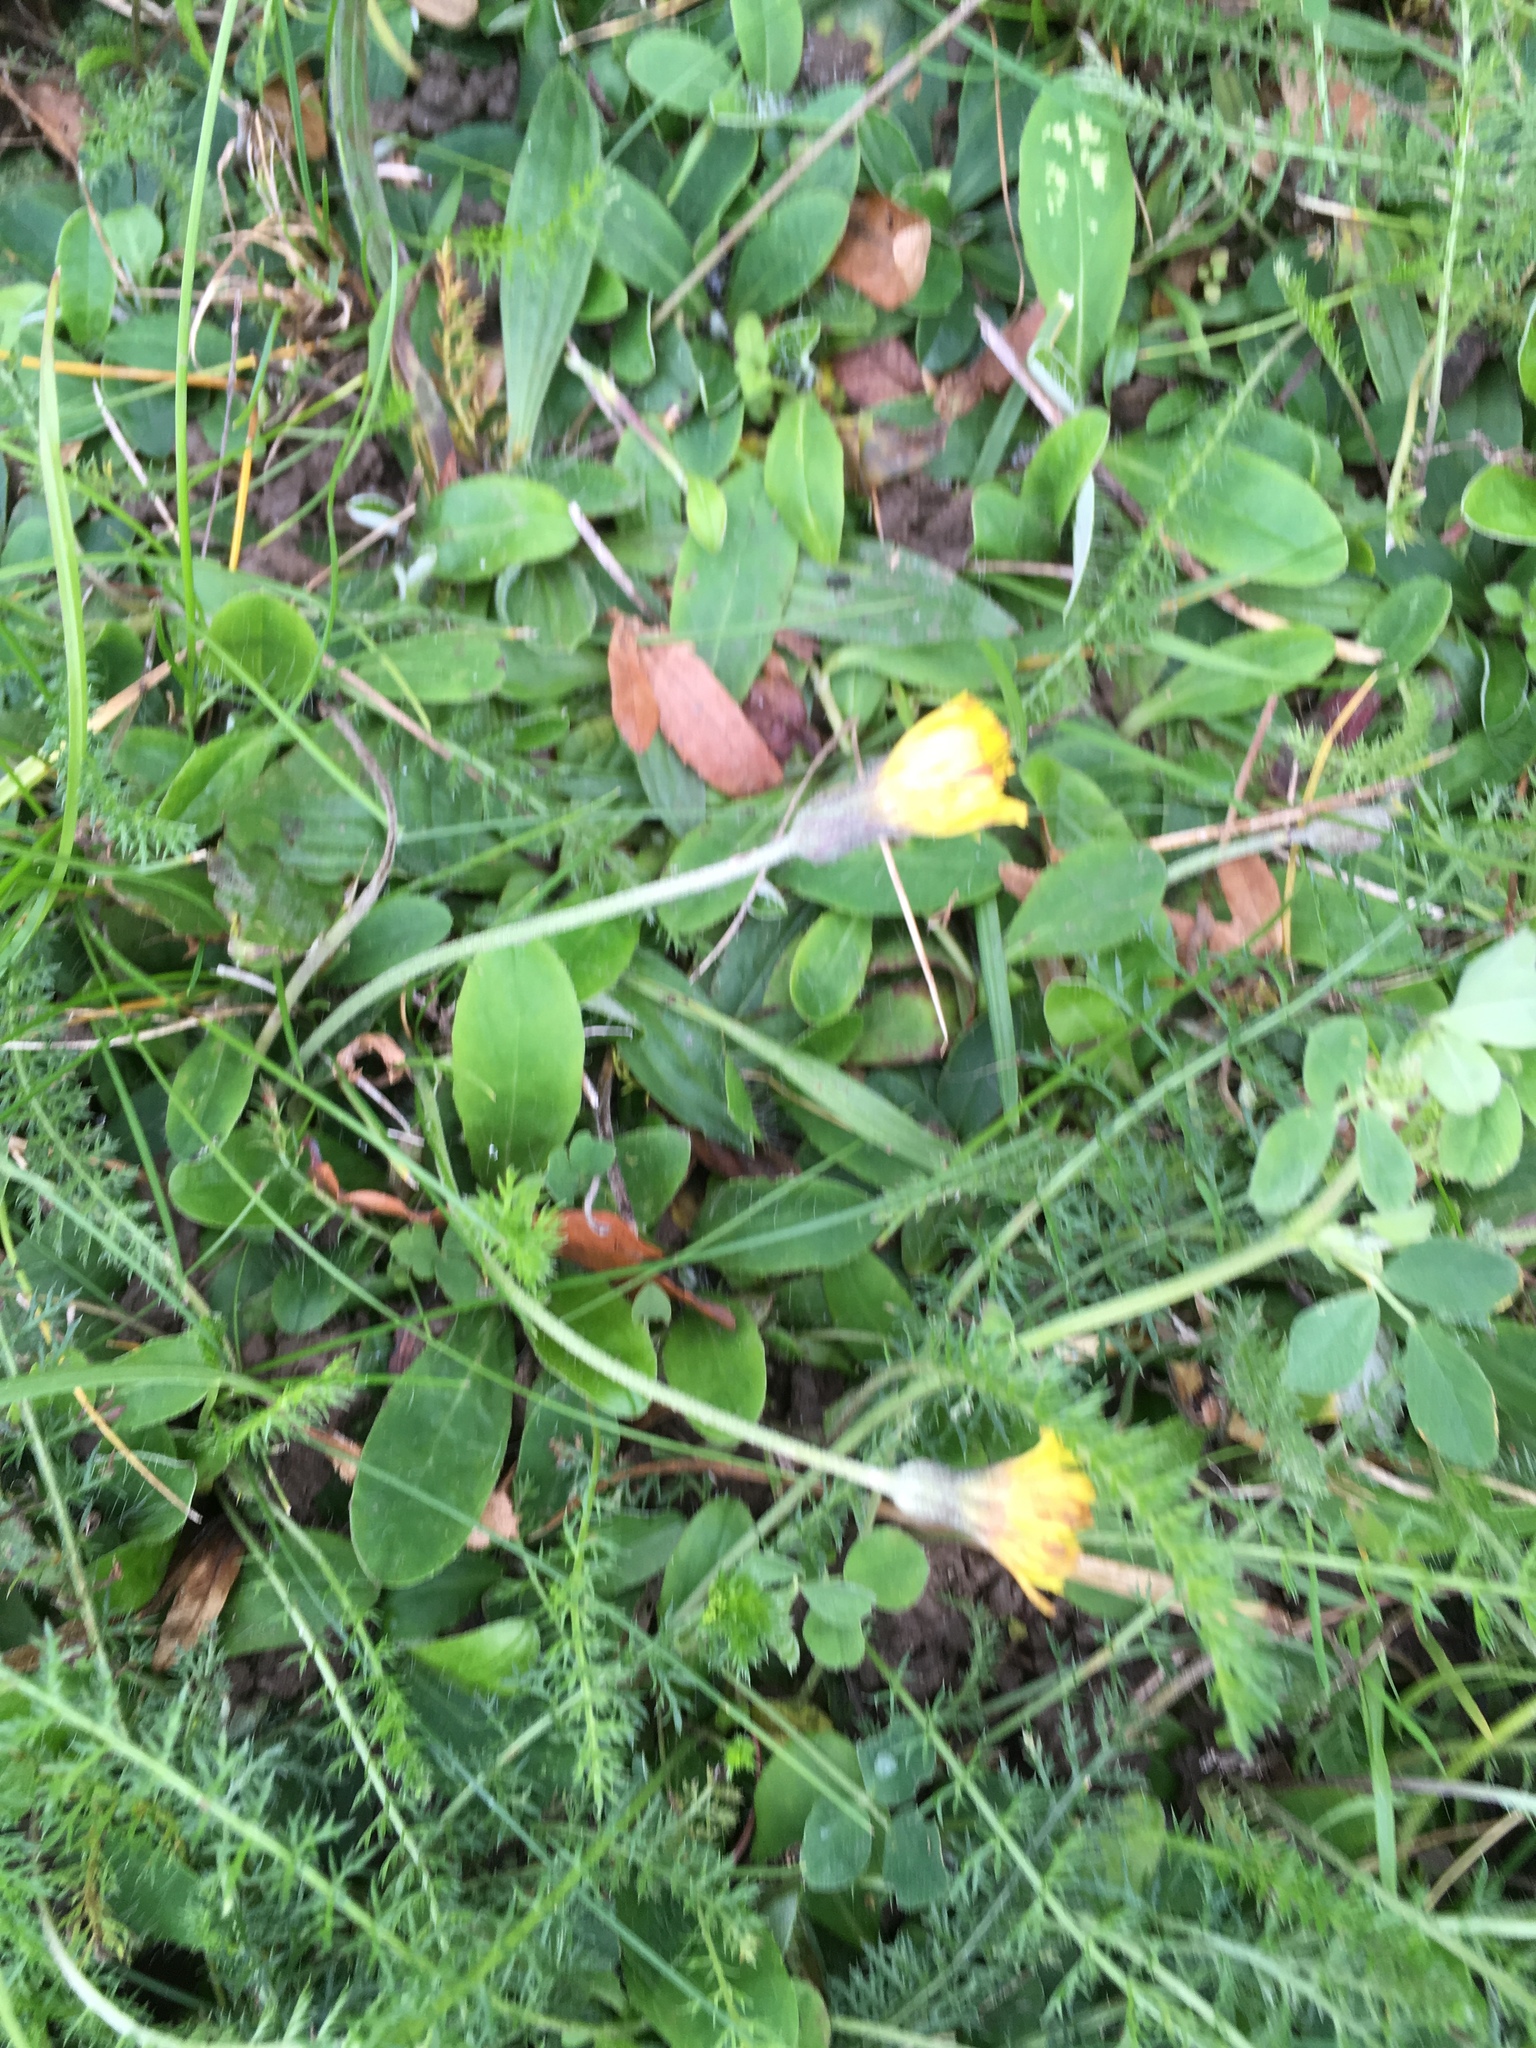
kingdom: Plantae
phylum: Tracheophyta
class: Magnoliopsida
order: Asterales
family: Asteraceae
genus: Pilosella
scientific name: Pilosella officinarum
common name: Mouse-ear hawkweed
